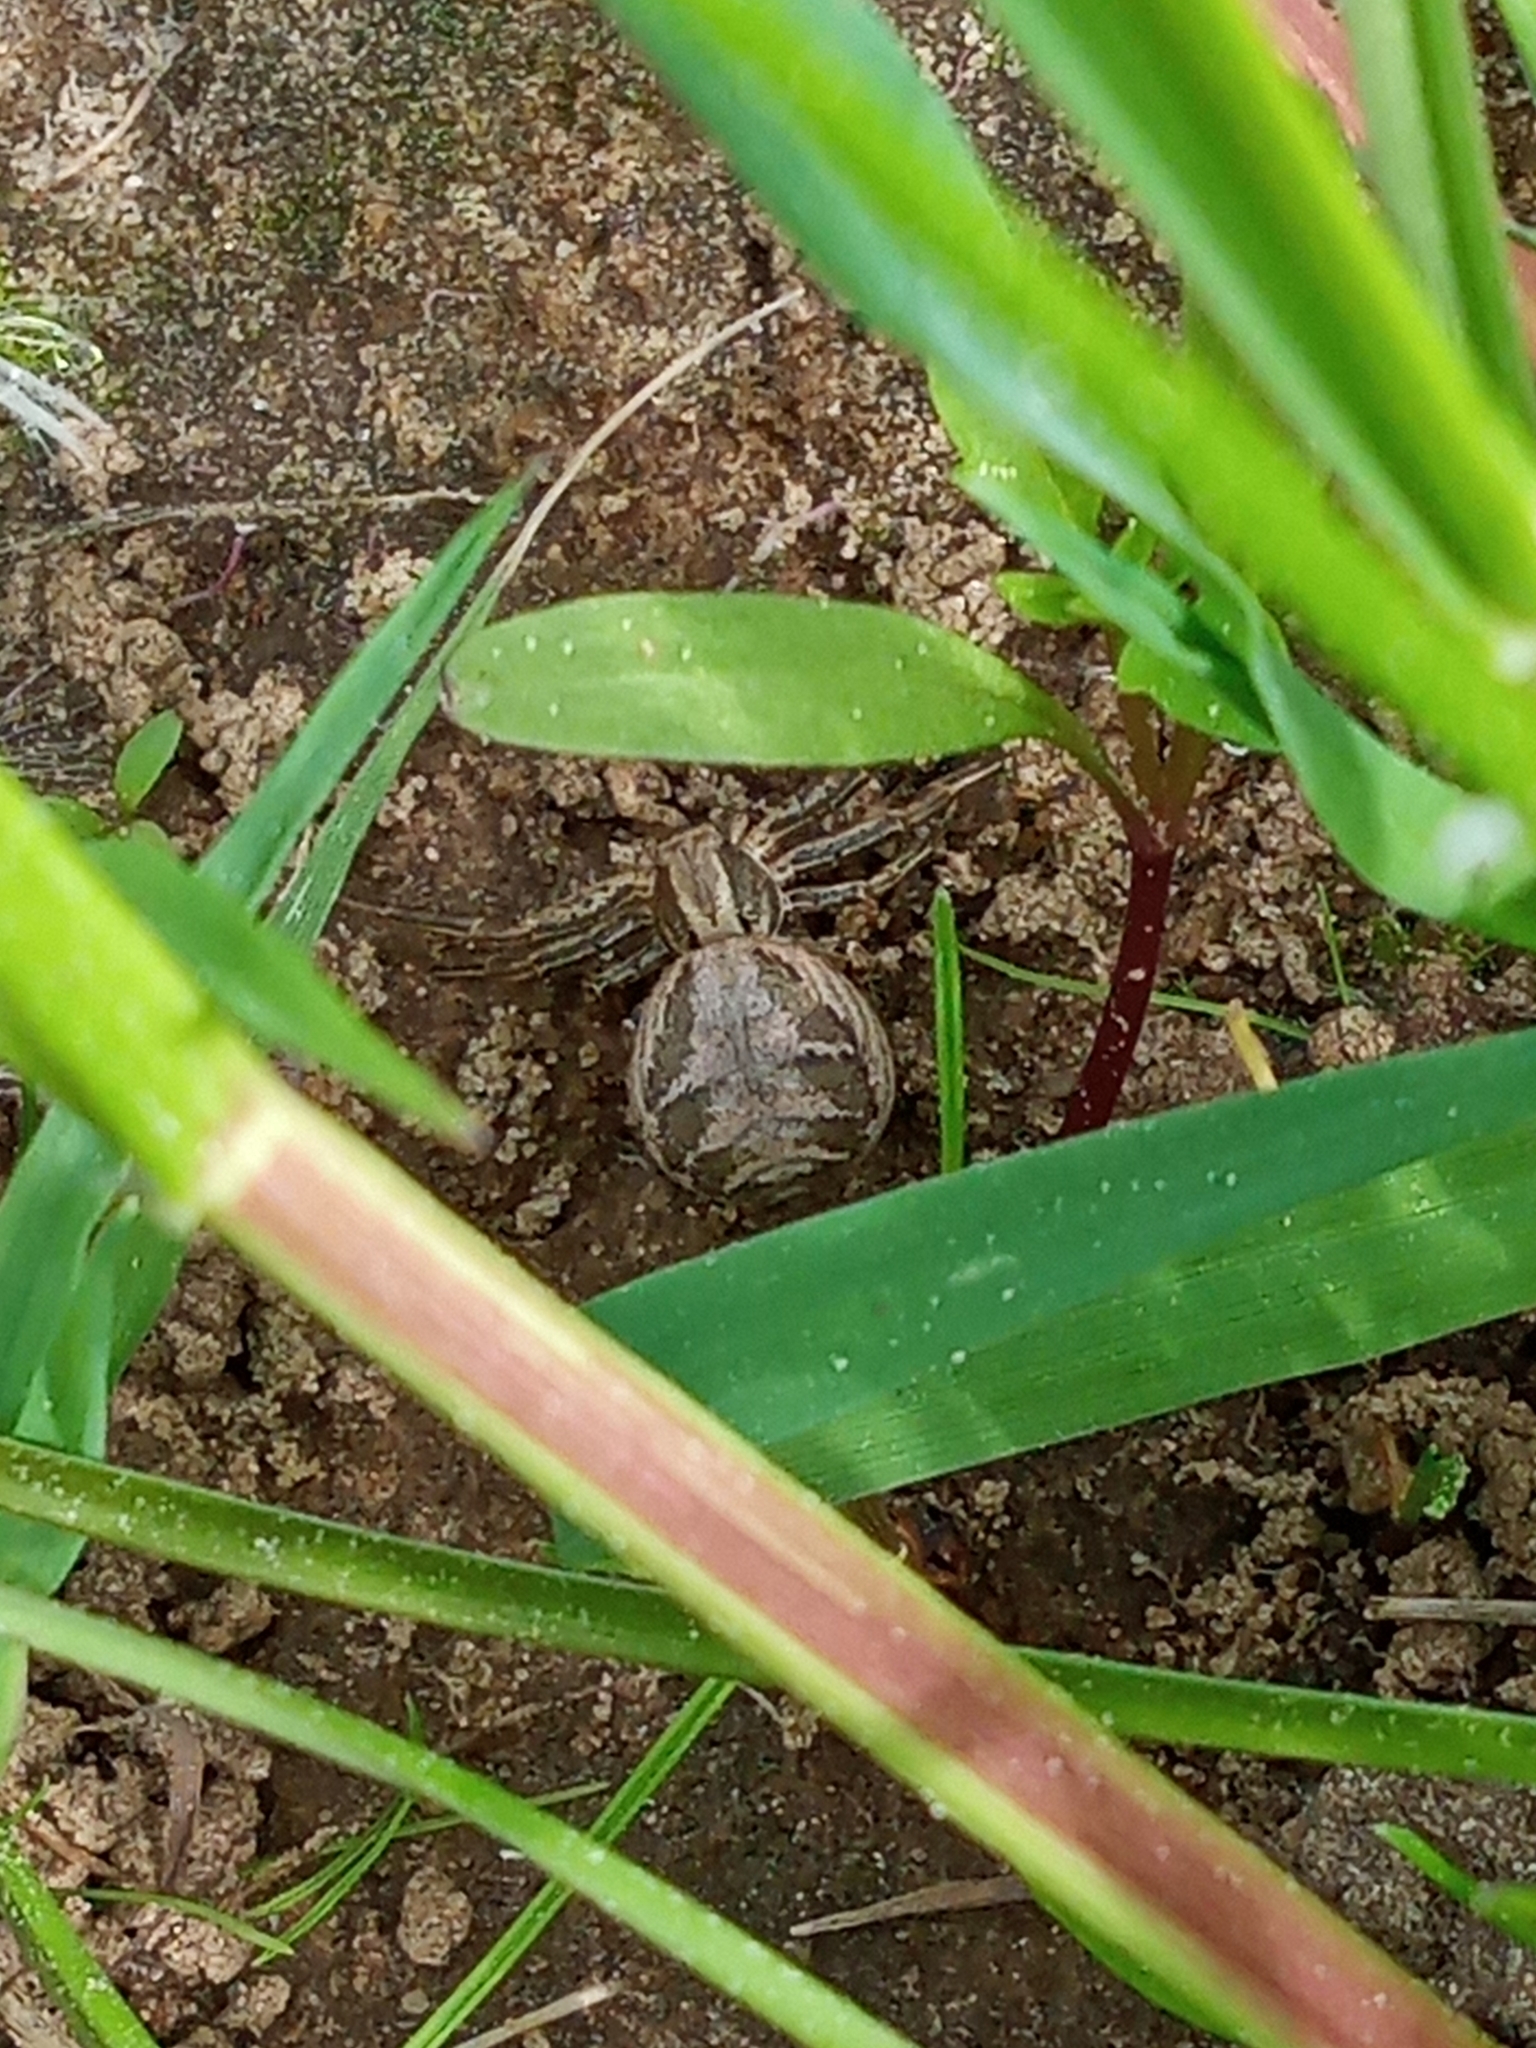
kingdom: Animalia
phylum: Arthropoda
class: Arachnida
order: Araneae
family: Thomisidae
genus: Xysticus
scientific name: Xysticus
